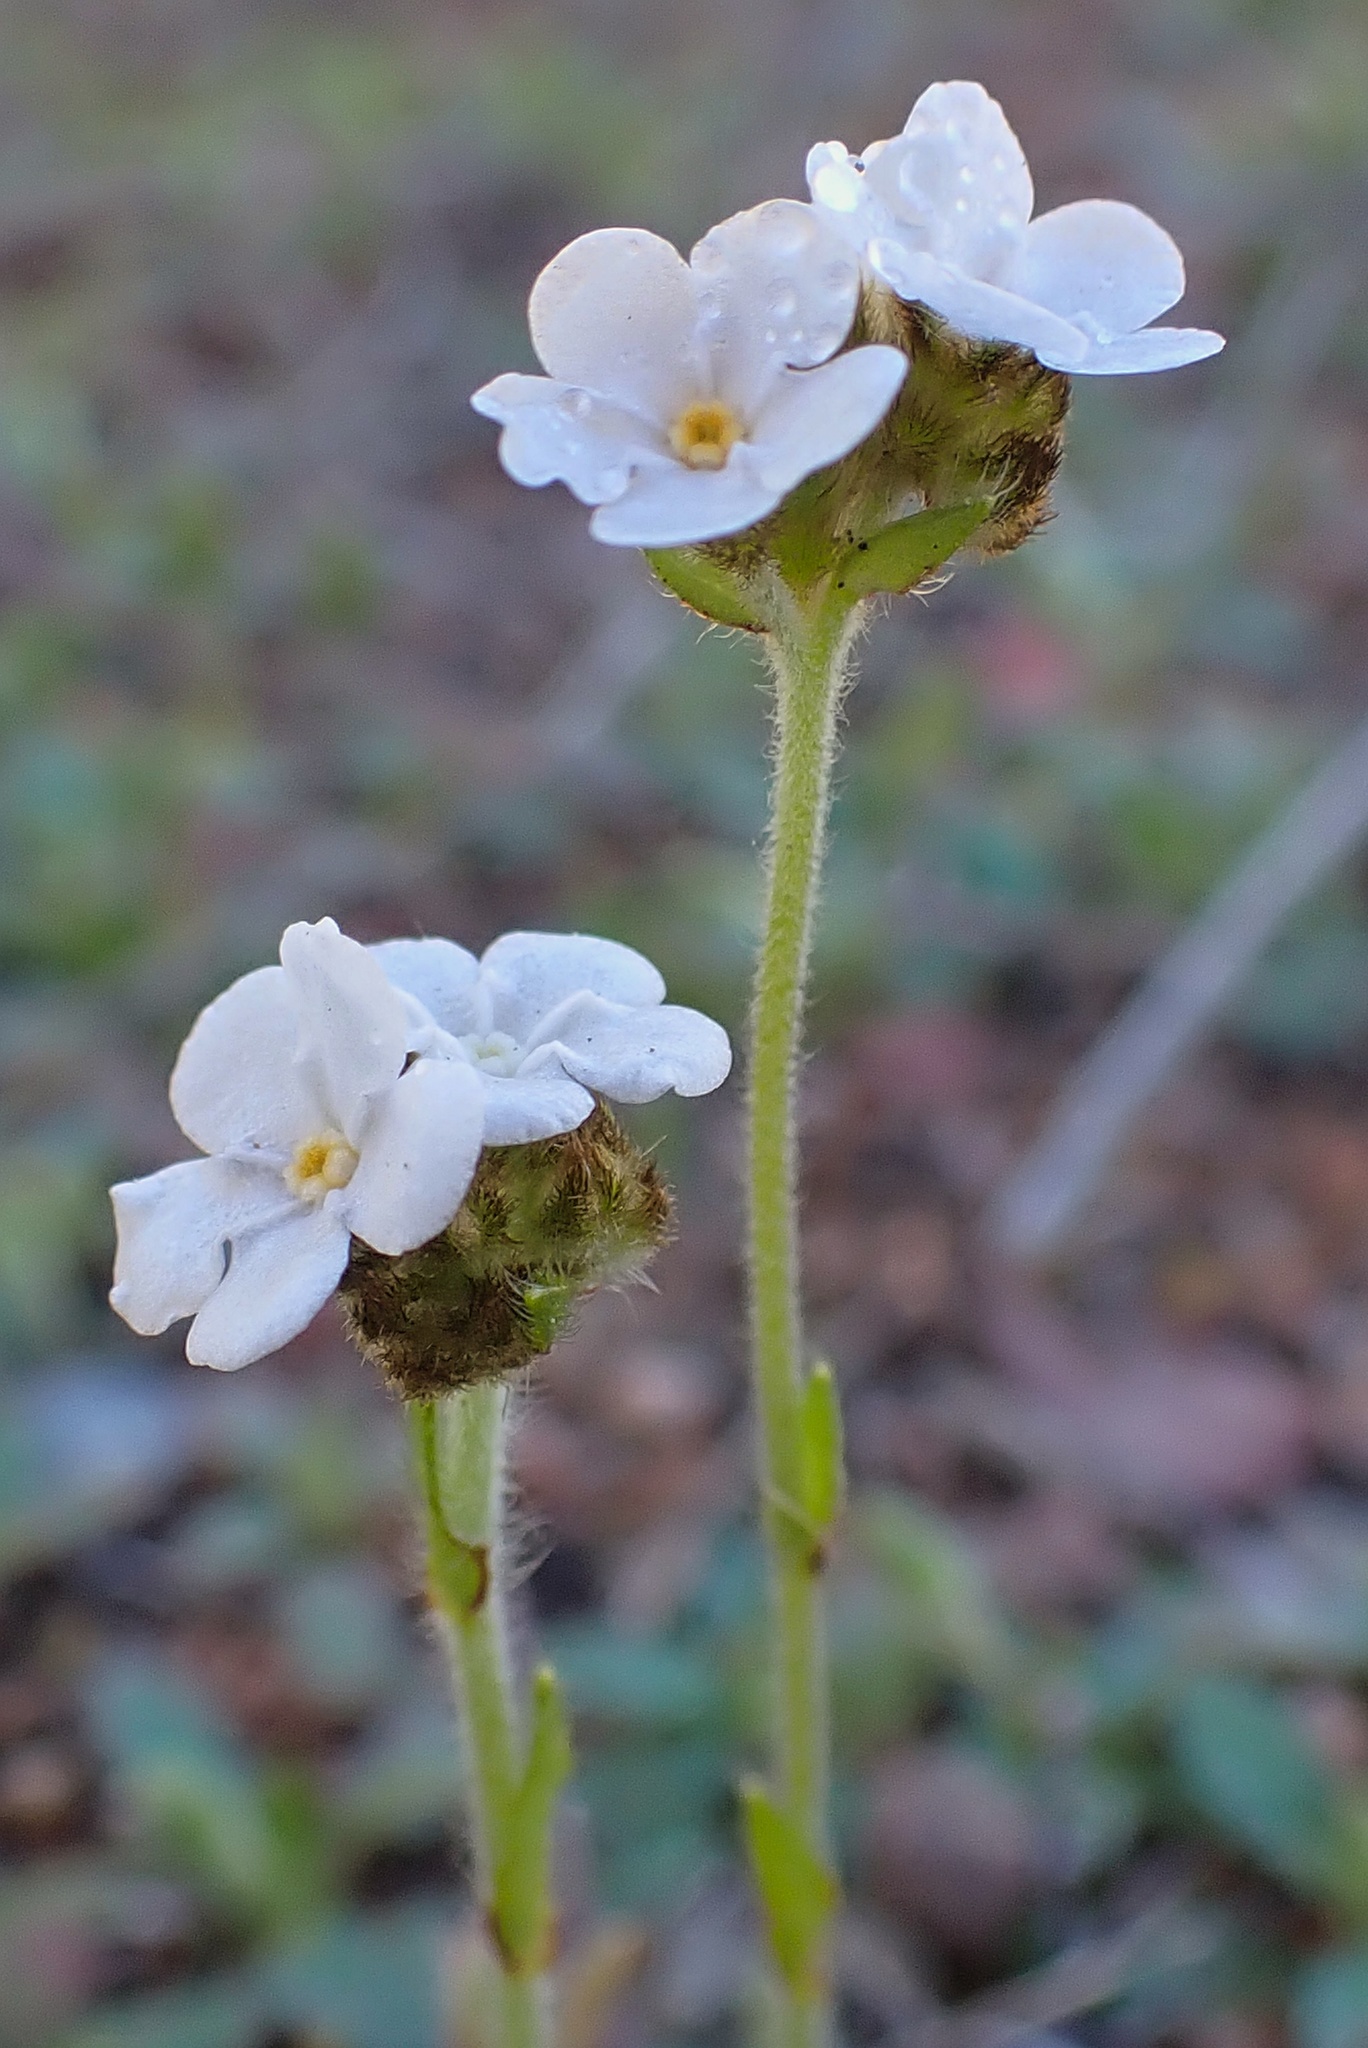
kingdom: Plantae
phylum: Tracheophyta
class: Magnoliopsida
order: Boraginales
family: Boraginaceae
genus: Plagiobothrys
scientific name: Plagiobothrys nothofulvus
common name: Popcorn-flower
